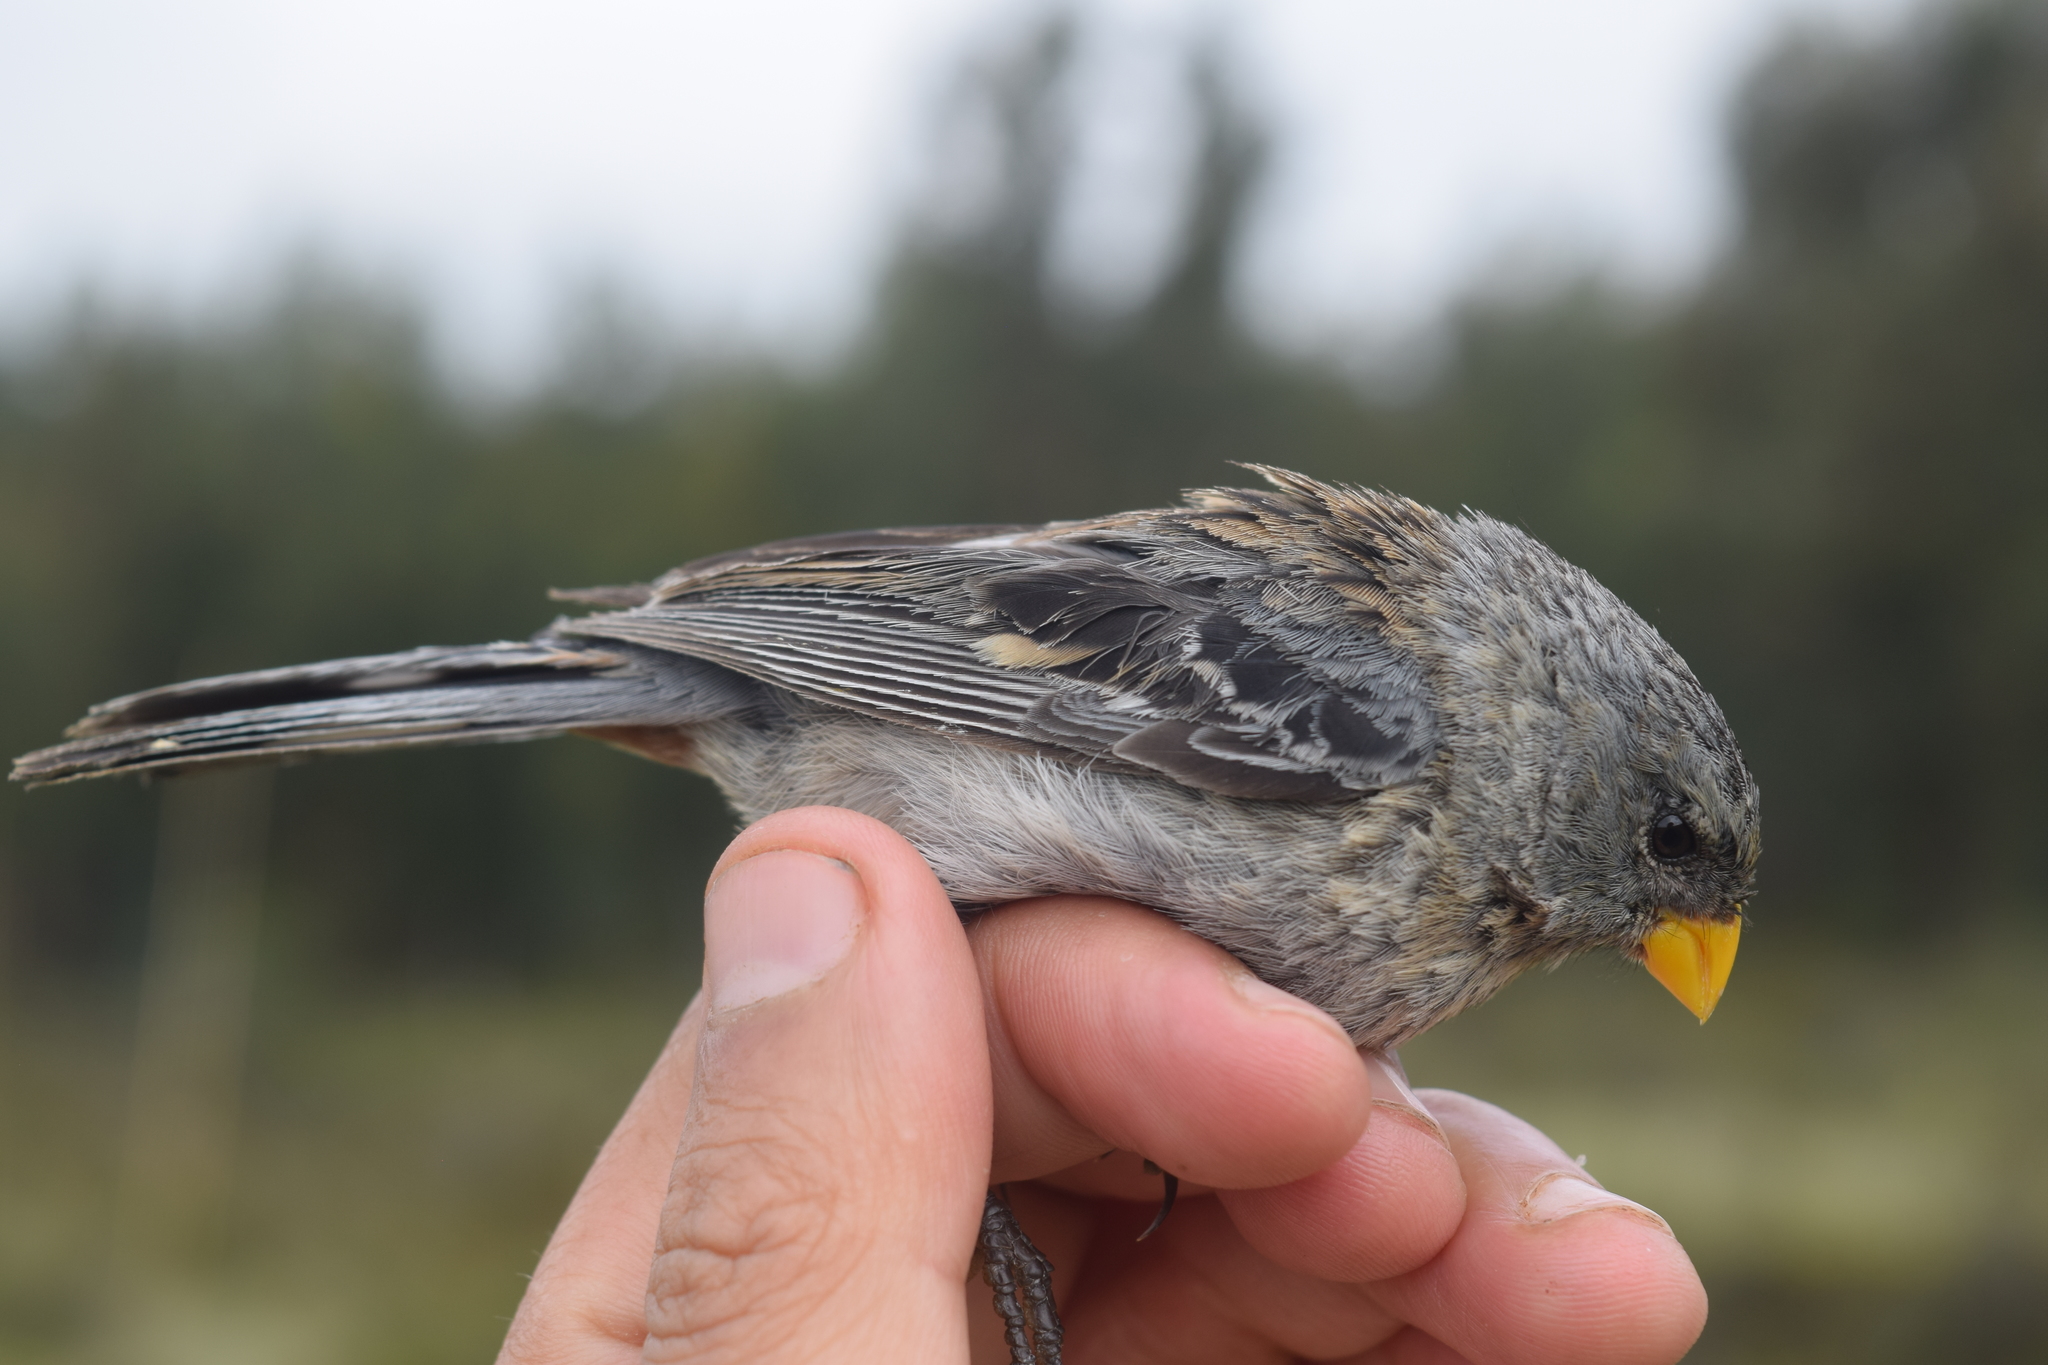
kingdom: Animalia
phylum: Chordata
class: Aves
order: Passeriformes
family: Thraupidae
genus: Catamenia
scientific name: Catamenia inornata
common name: Plain-colored seedeater
